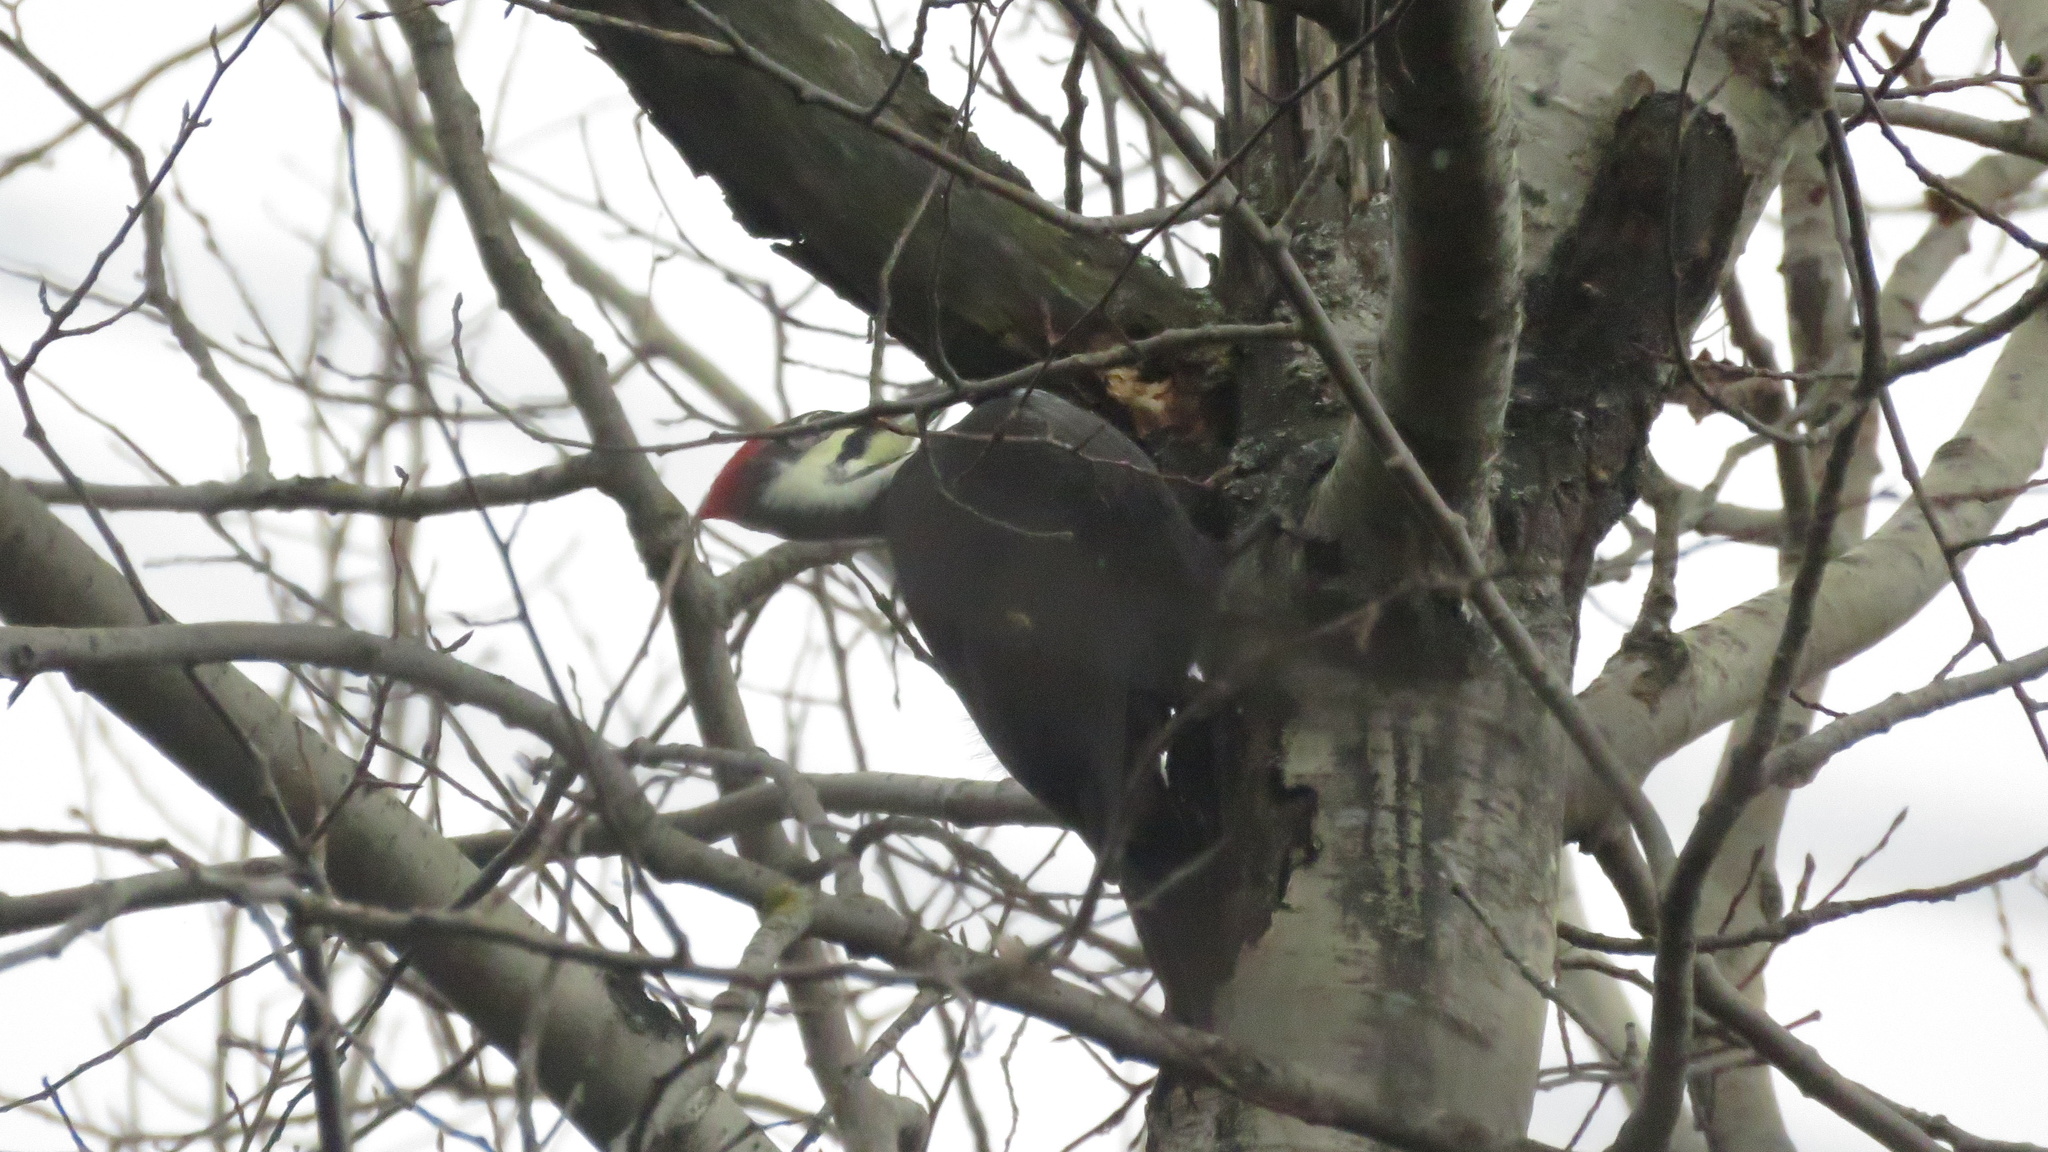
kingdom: Animalia
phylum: Chordata
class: Aves
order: Piciformes
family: Picidae
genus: Dryocopus
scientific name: Dryocopus pileatus
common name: Pileated woodpecker
